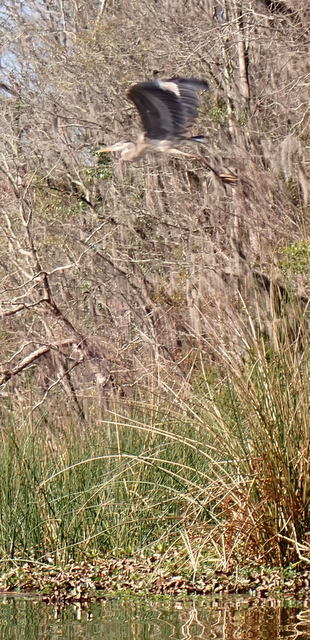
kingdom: Animalia
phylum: Chordata
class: Aves
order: Pelecaniformes
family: Ardeidae
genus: Ardea
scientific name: Ardea herodias
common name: Great blue heron
